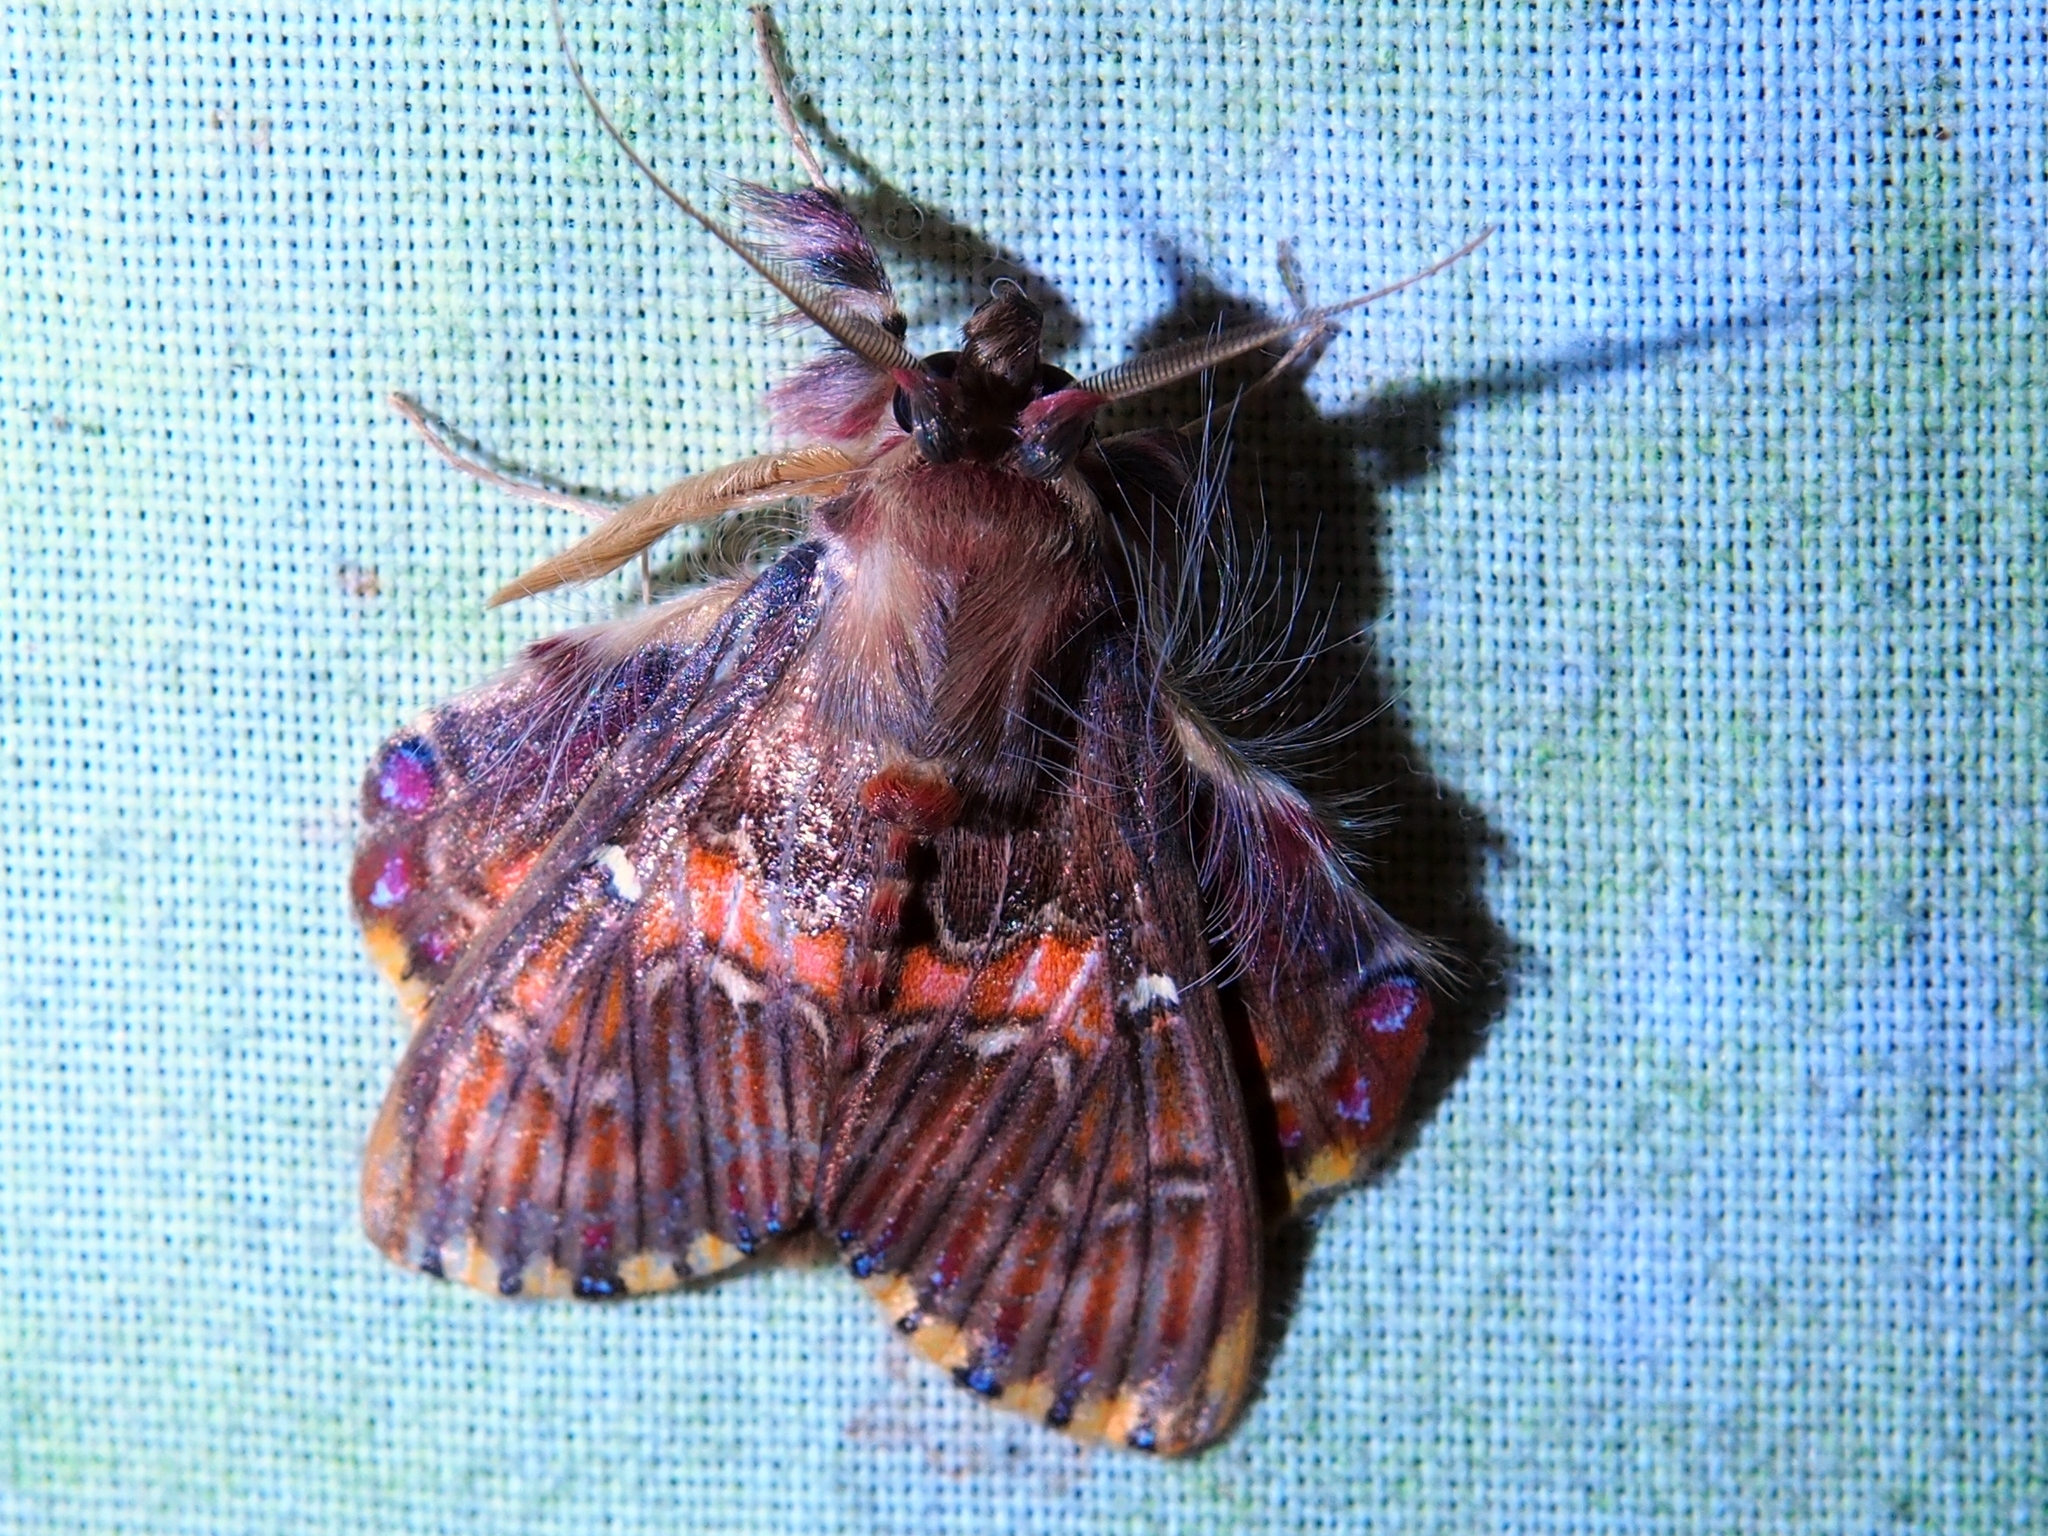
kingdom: Animalia
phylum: Arthropoda
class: Insecta
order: Lepidoptera
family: Erebidae
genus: Sosxetra
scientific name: Sosxetra grata
